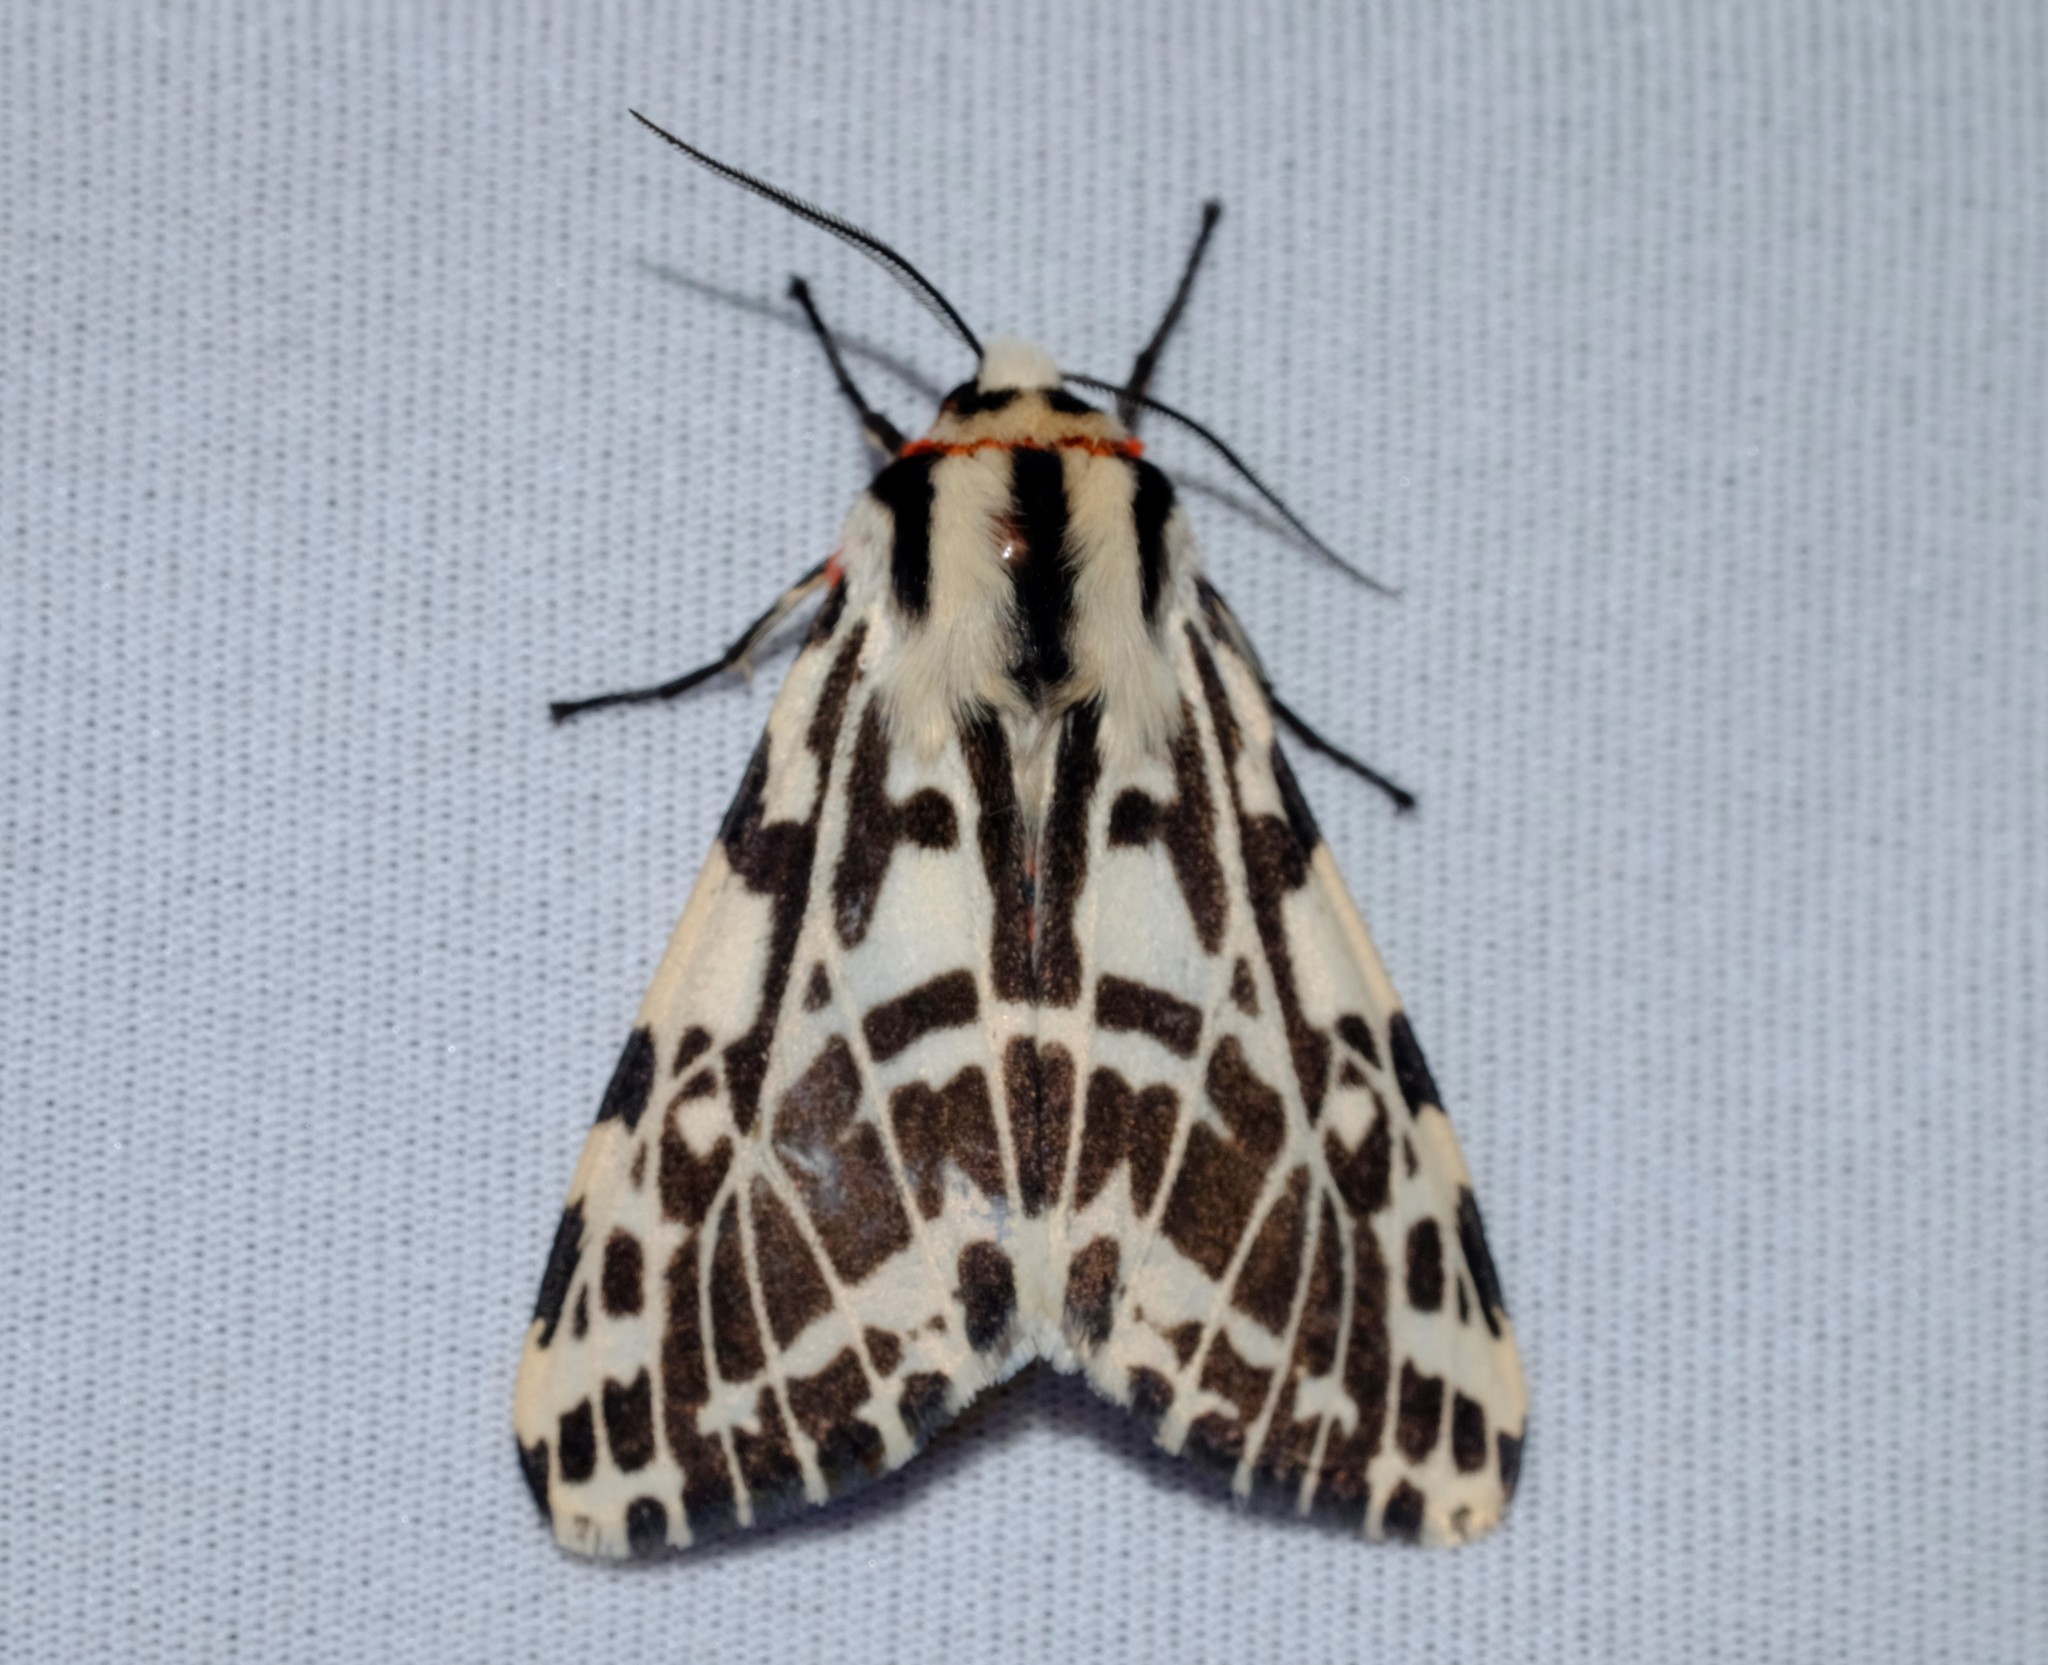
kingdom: Animalia
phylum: Arthropoda
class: Insecta
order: Lepidoptera
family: Erebidae
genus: Ardices
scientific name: Ardices glatignyi
